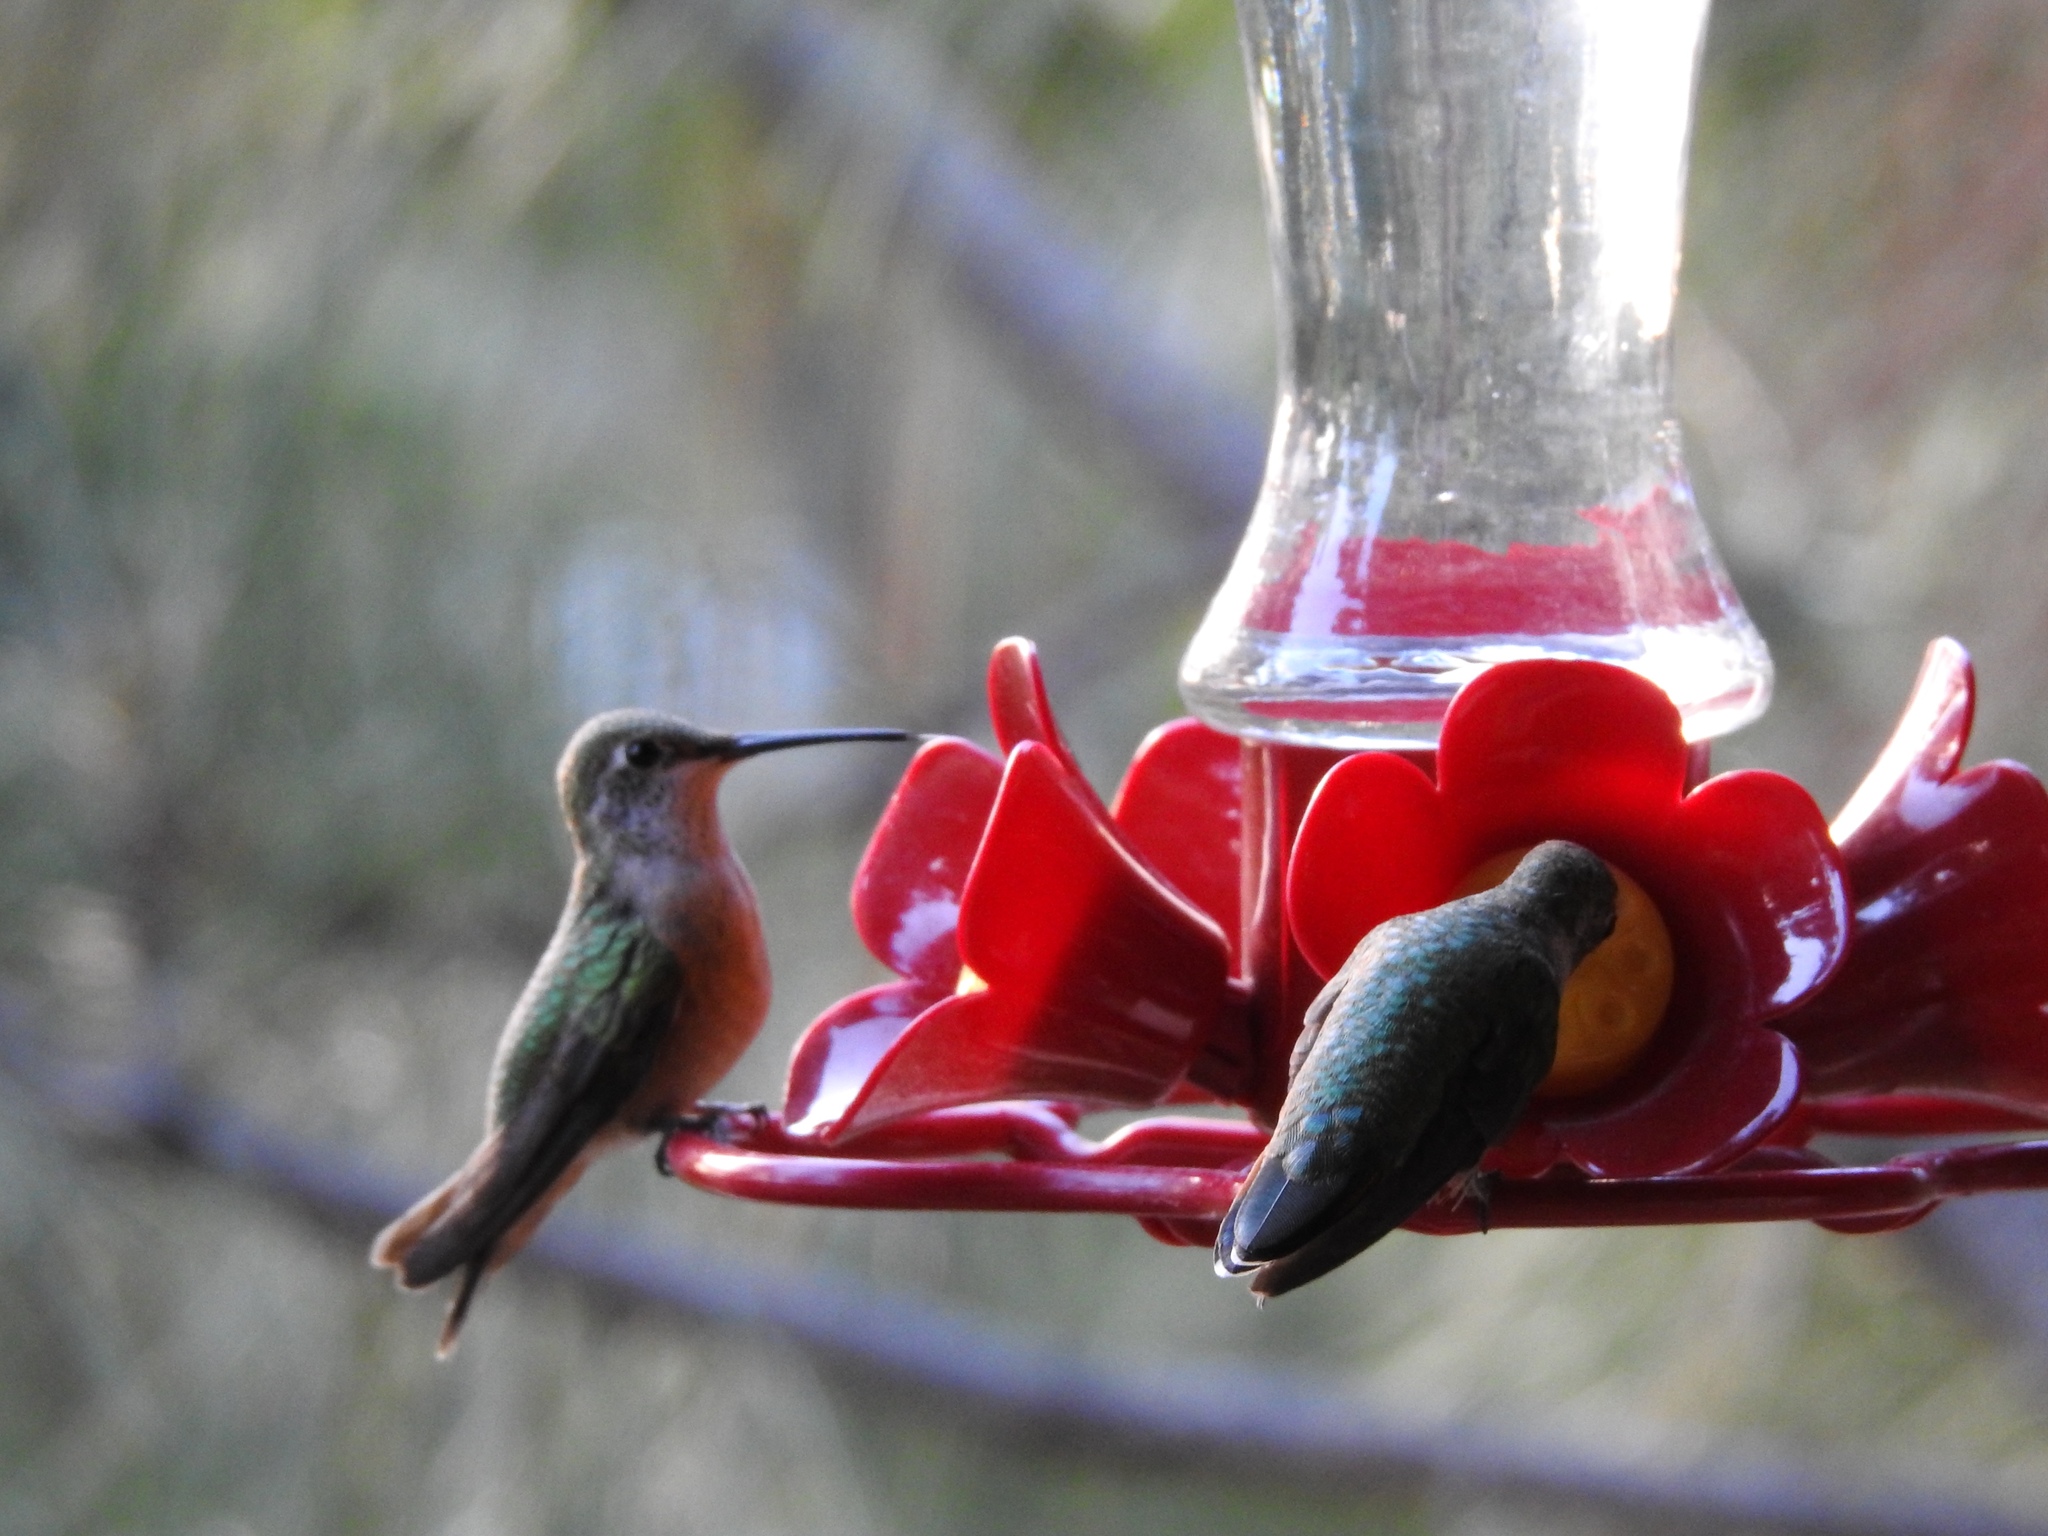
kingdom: Animalia
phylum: Chordata
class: Aves
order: Apodiformes
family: Trochilidae
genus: Selasphorus
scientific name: Selasphorus platycercus
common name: Broad-tailed hummingbird
